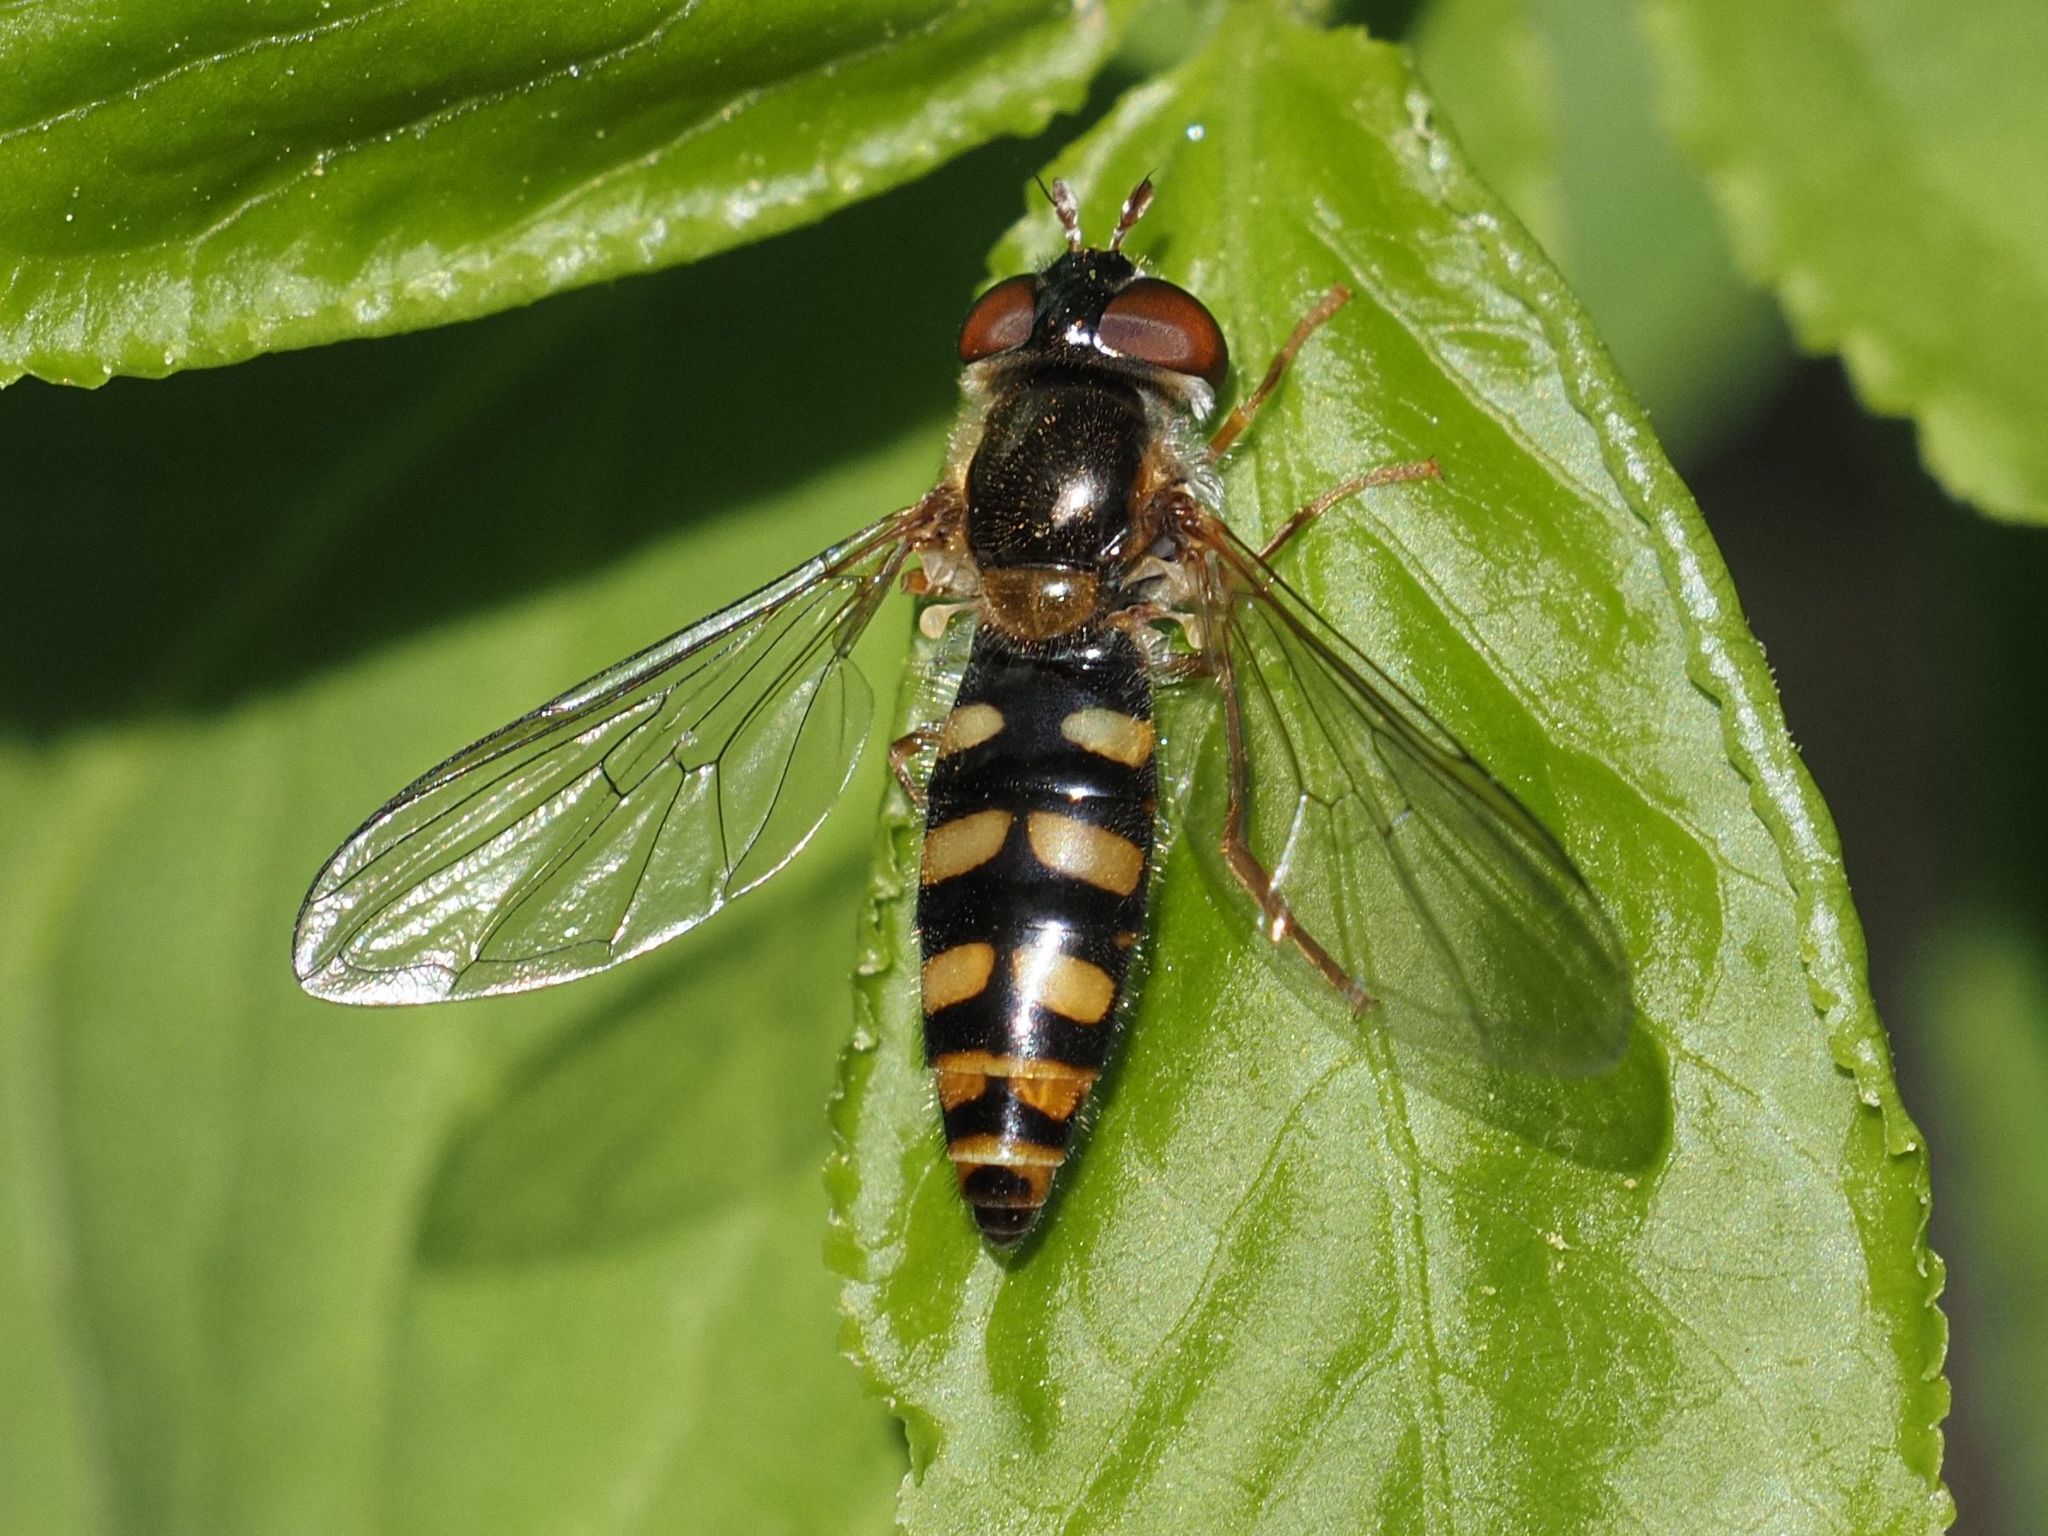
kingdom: Animalia
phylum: Arthropoda
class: Insecta
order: Diptera
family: Syrphidae
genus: Epistrophella
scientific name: Epistrophella euchromus
